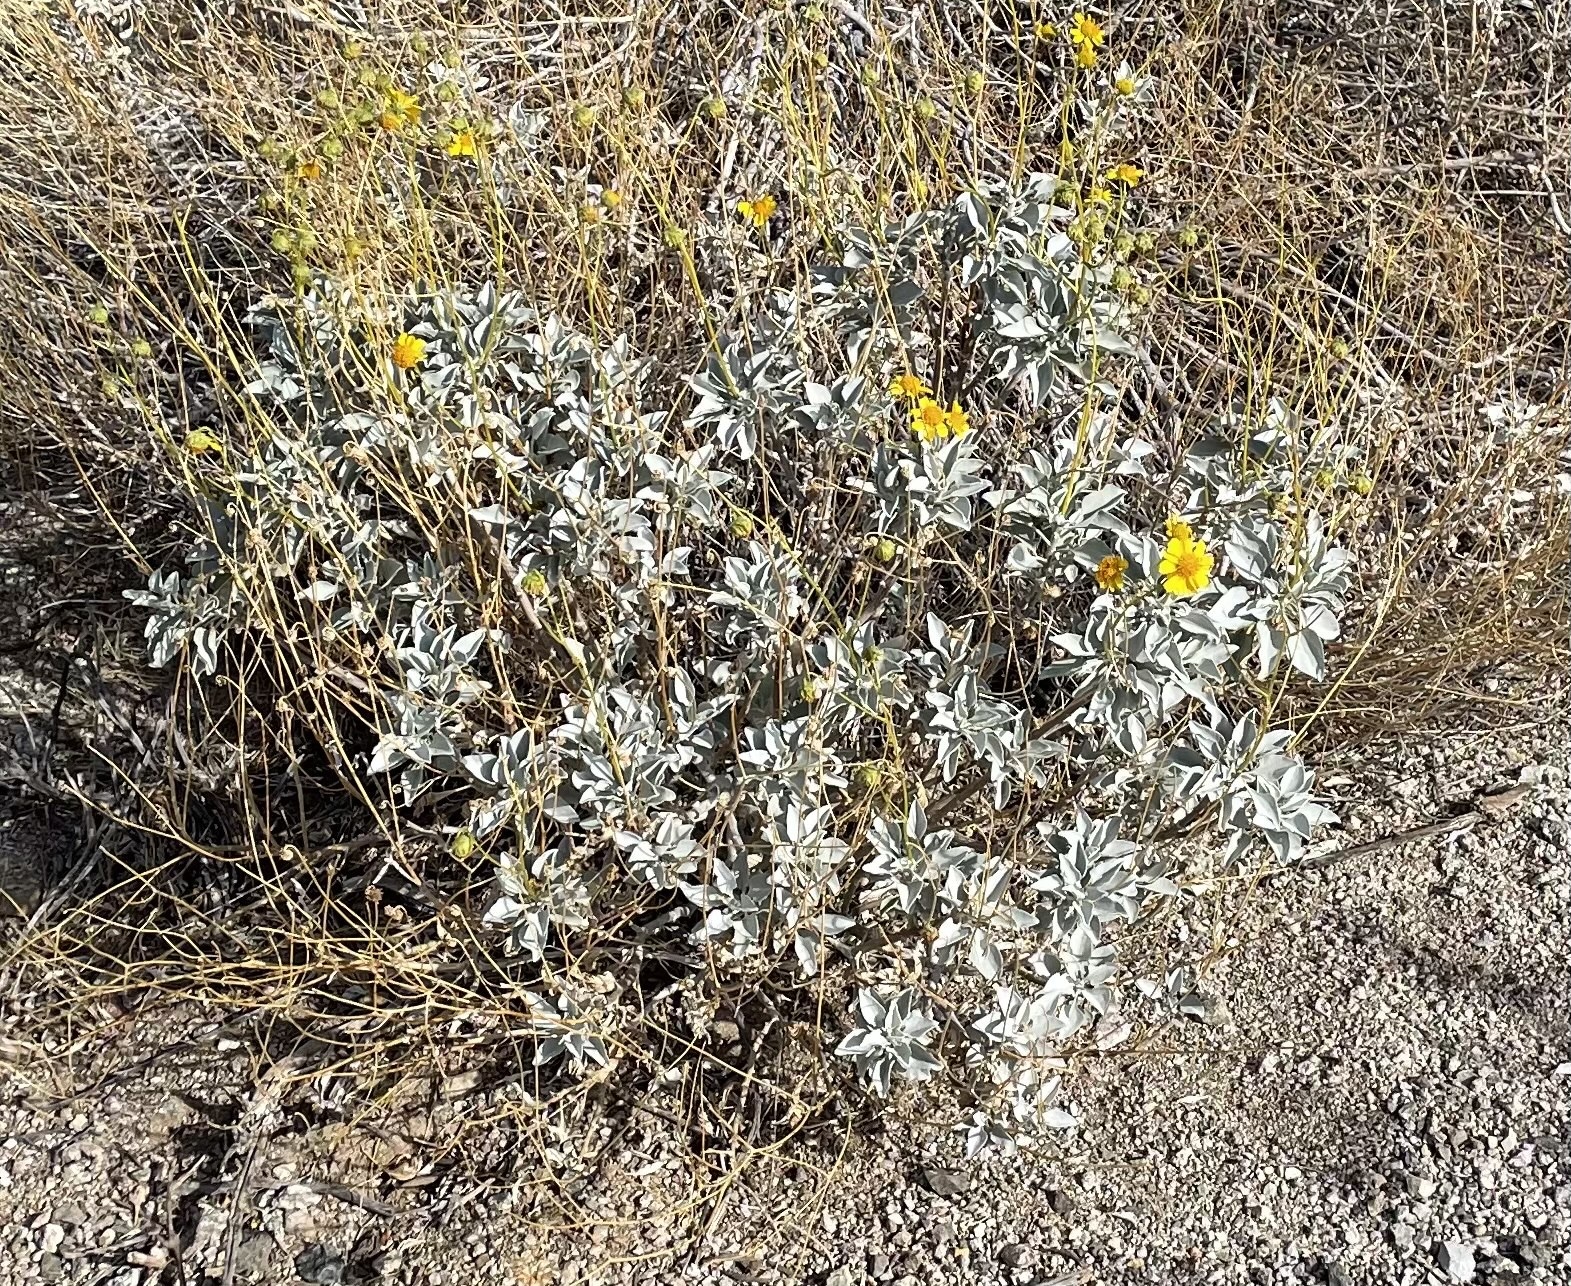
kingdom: Plantae
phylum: Tracheophyta
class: Magnoliopsida
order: Asterales
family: Asteraceae
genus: Encelia
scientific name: Encelia farinosa
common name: Brittlebush
